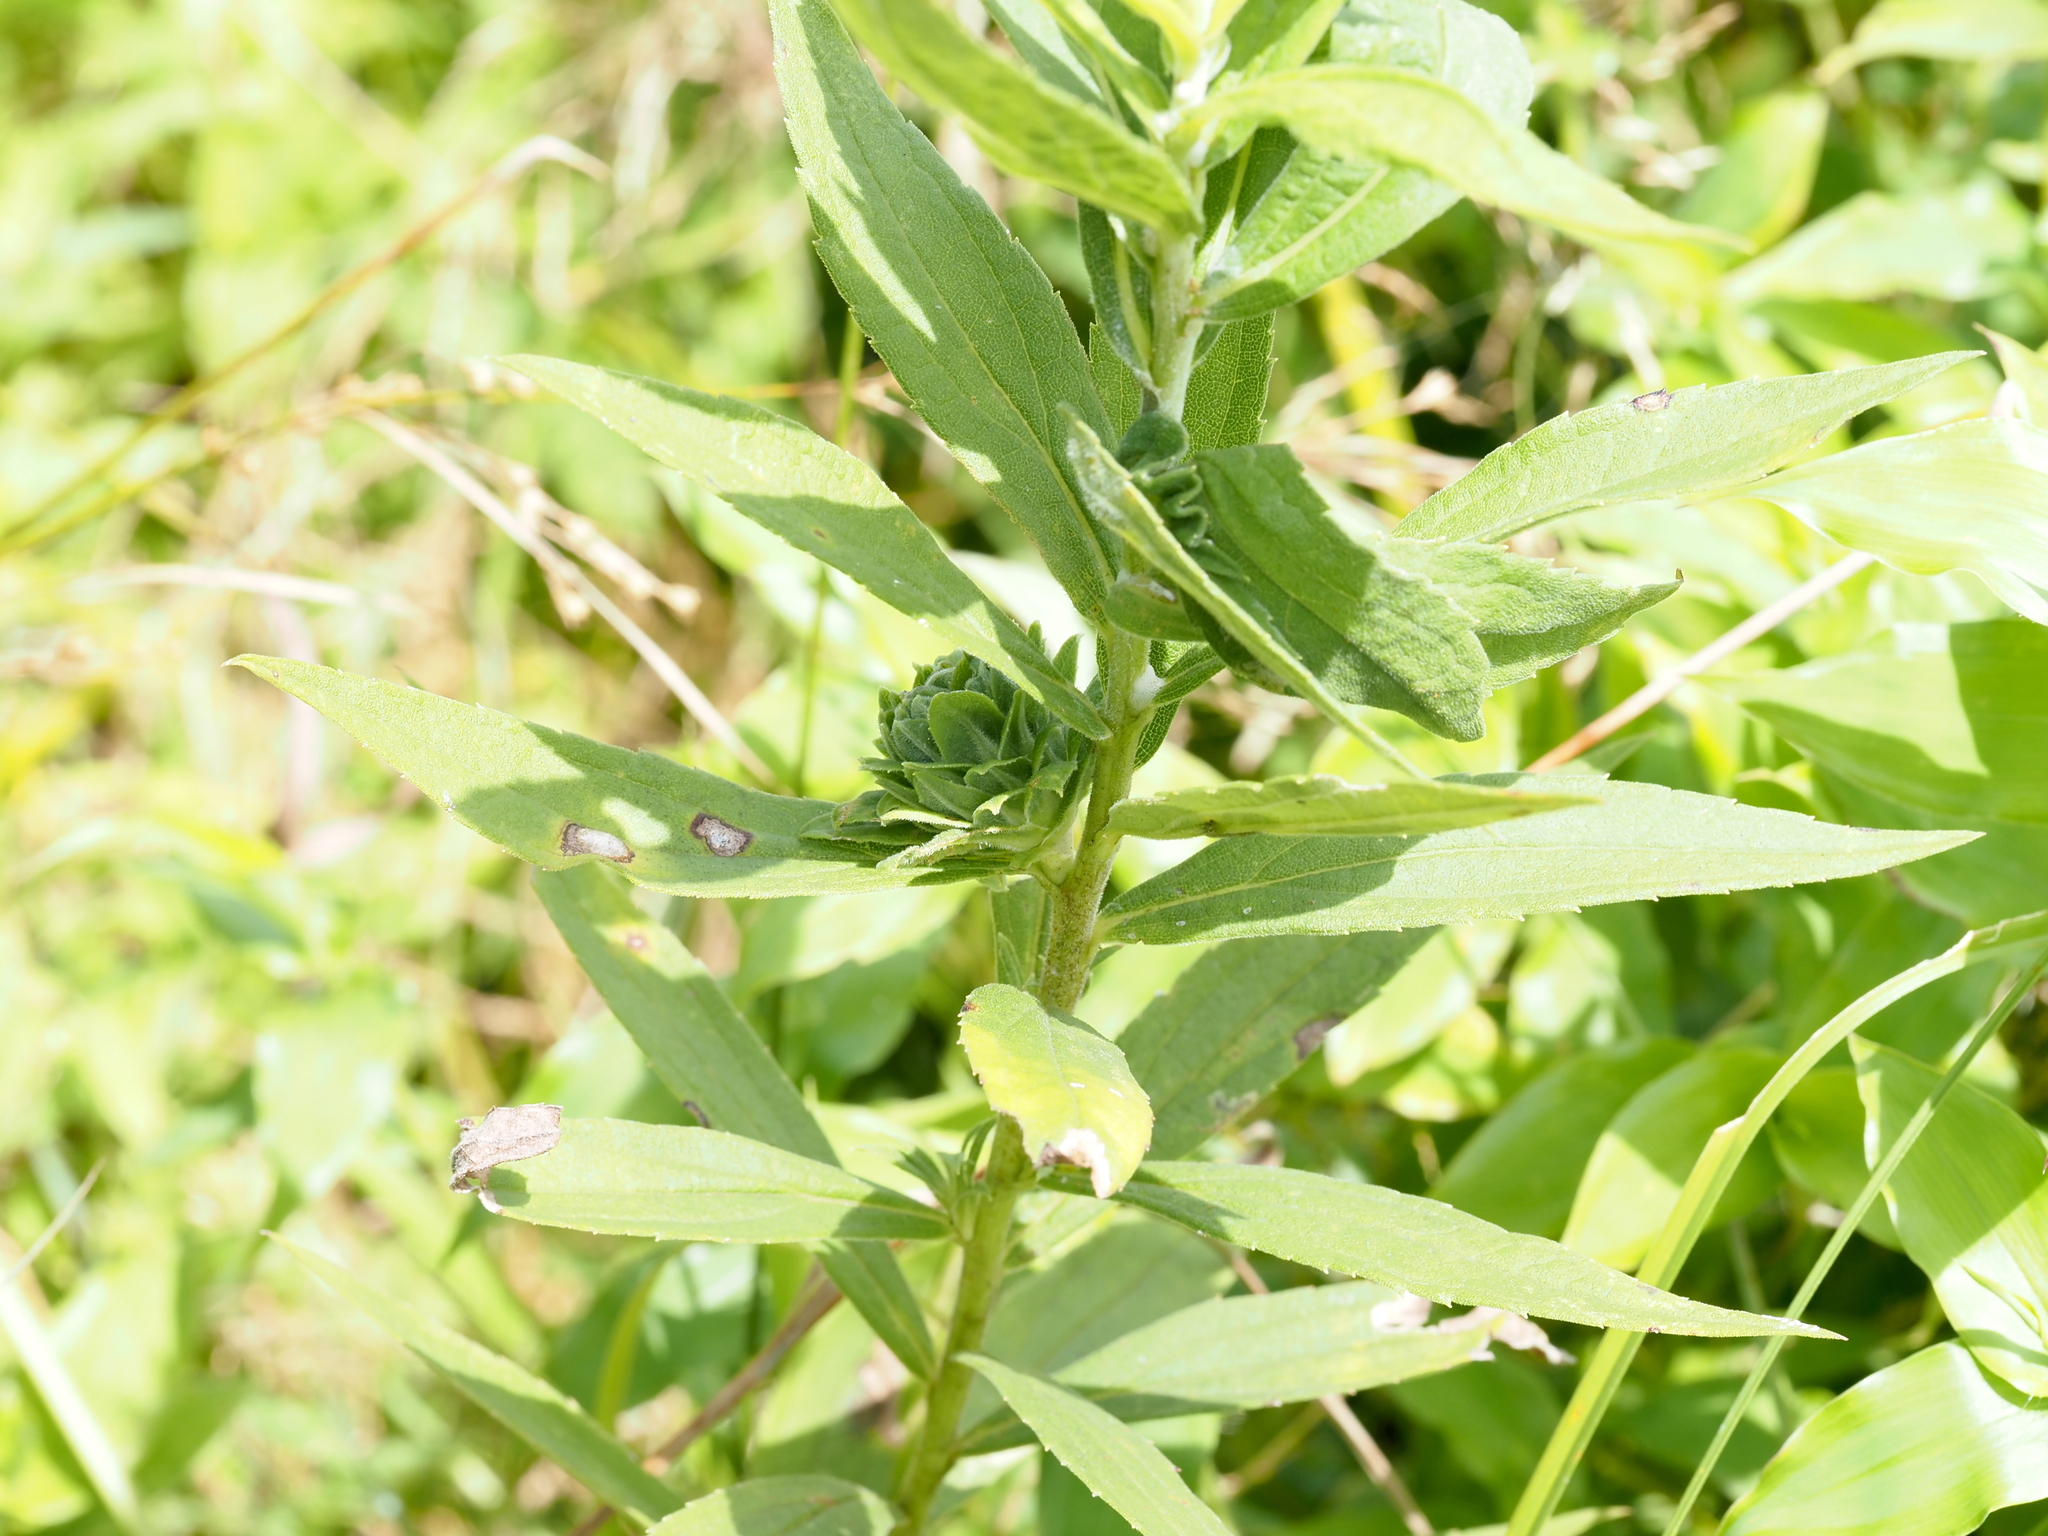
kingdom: Animalia
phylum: Arthropoda
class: Insecta
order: Diptera
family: Tephritidae
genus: Procecidochares
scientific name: Procecidochares atra
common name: Goldenrod brussels sprout gall fly
